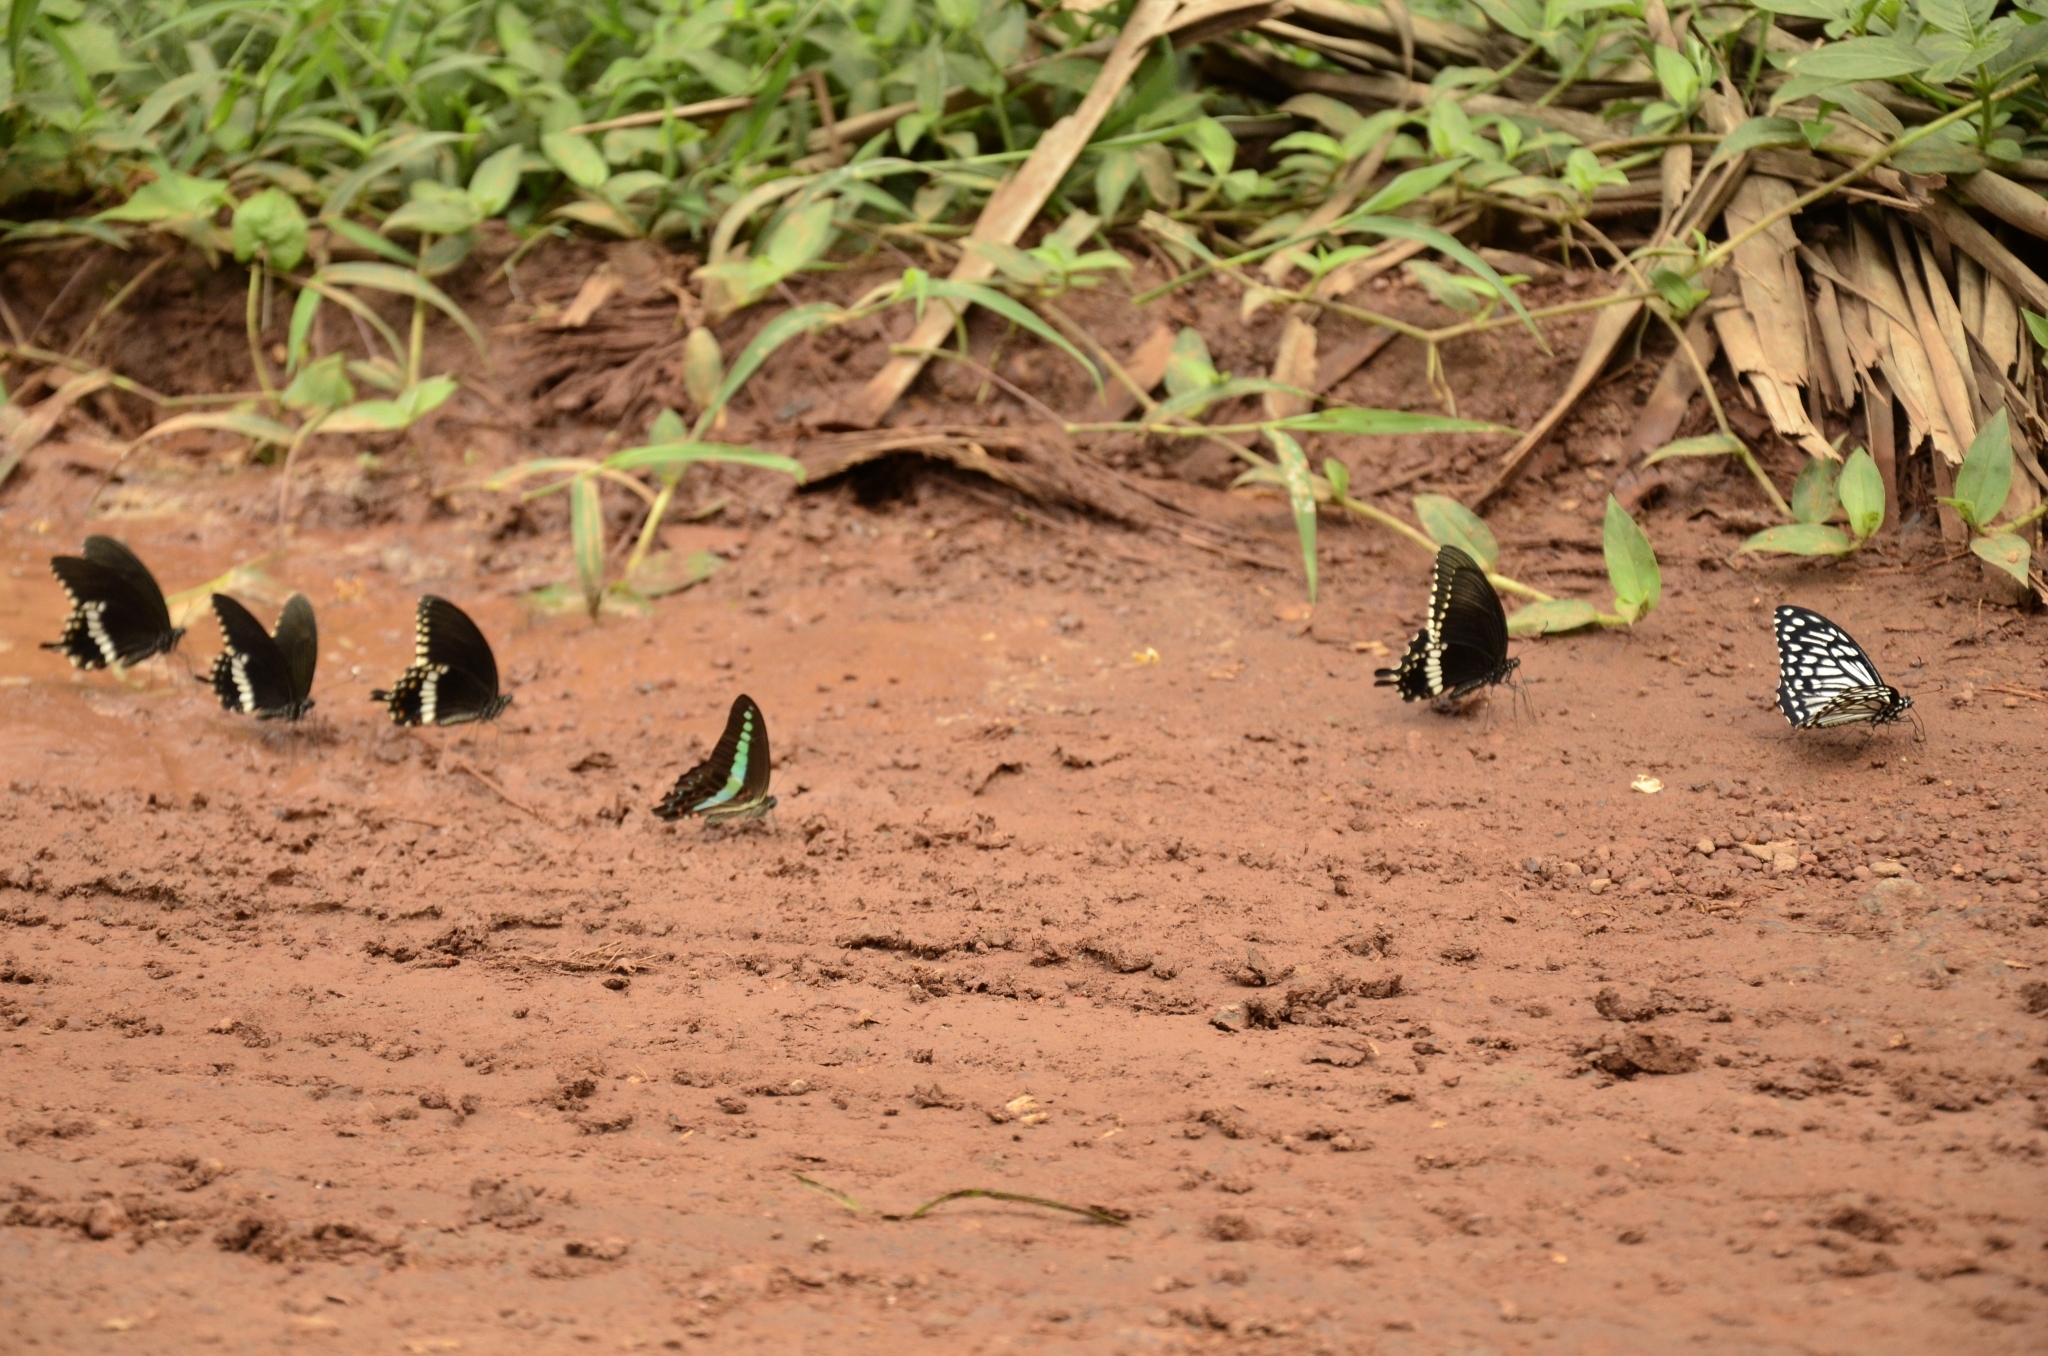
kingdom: Animalia
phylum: Arthropoda
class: Insecta
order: Lepidoptera
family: Papilionidae
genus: Papilio
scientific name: Papilio polytes
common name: Common mormon
